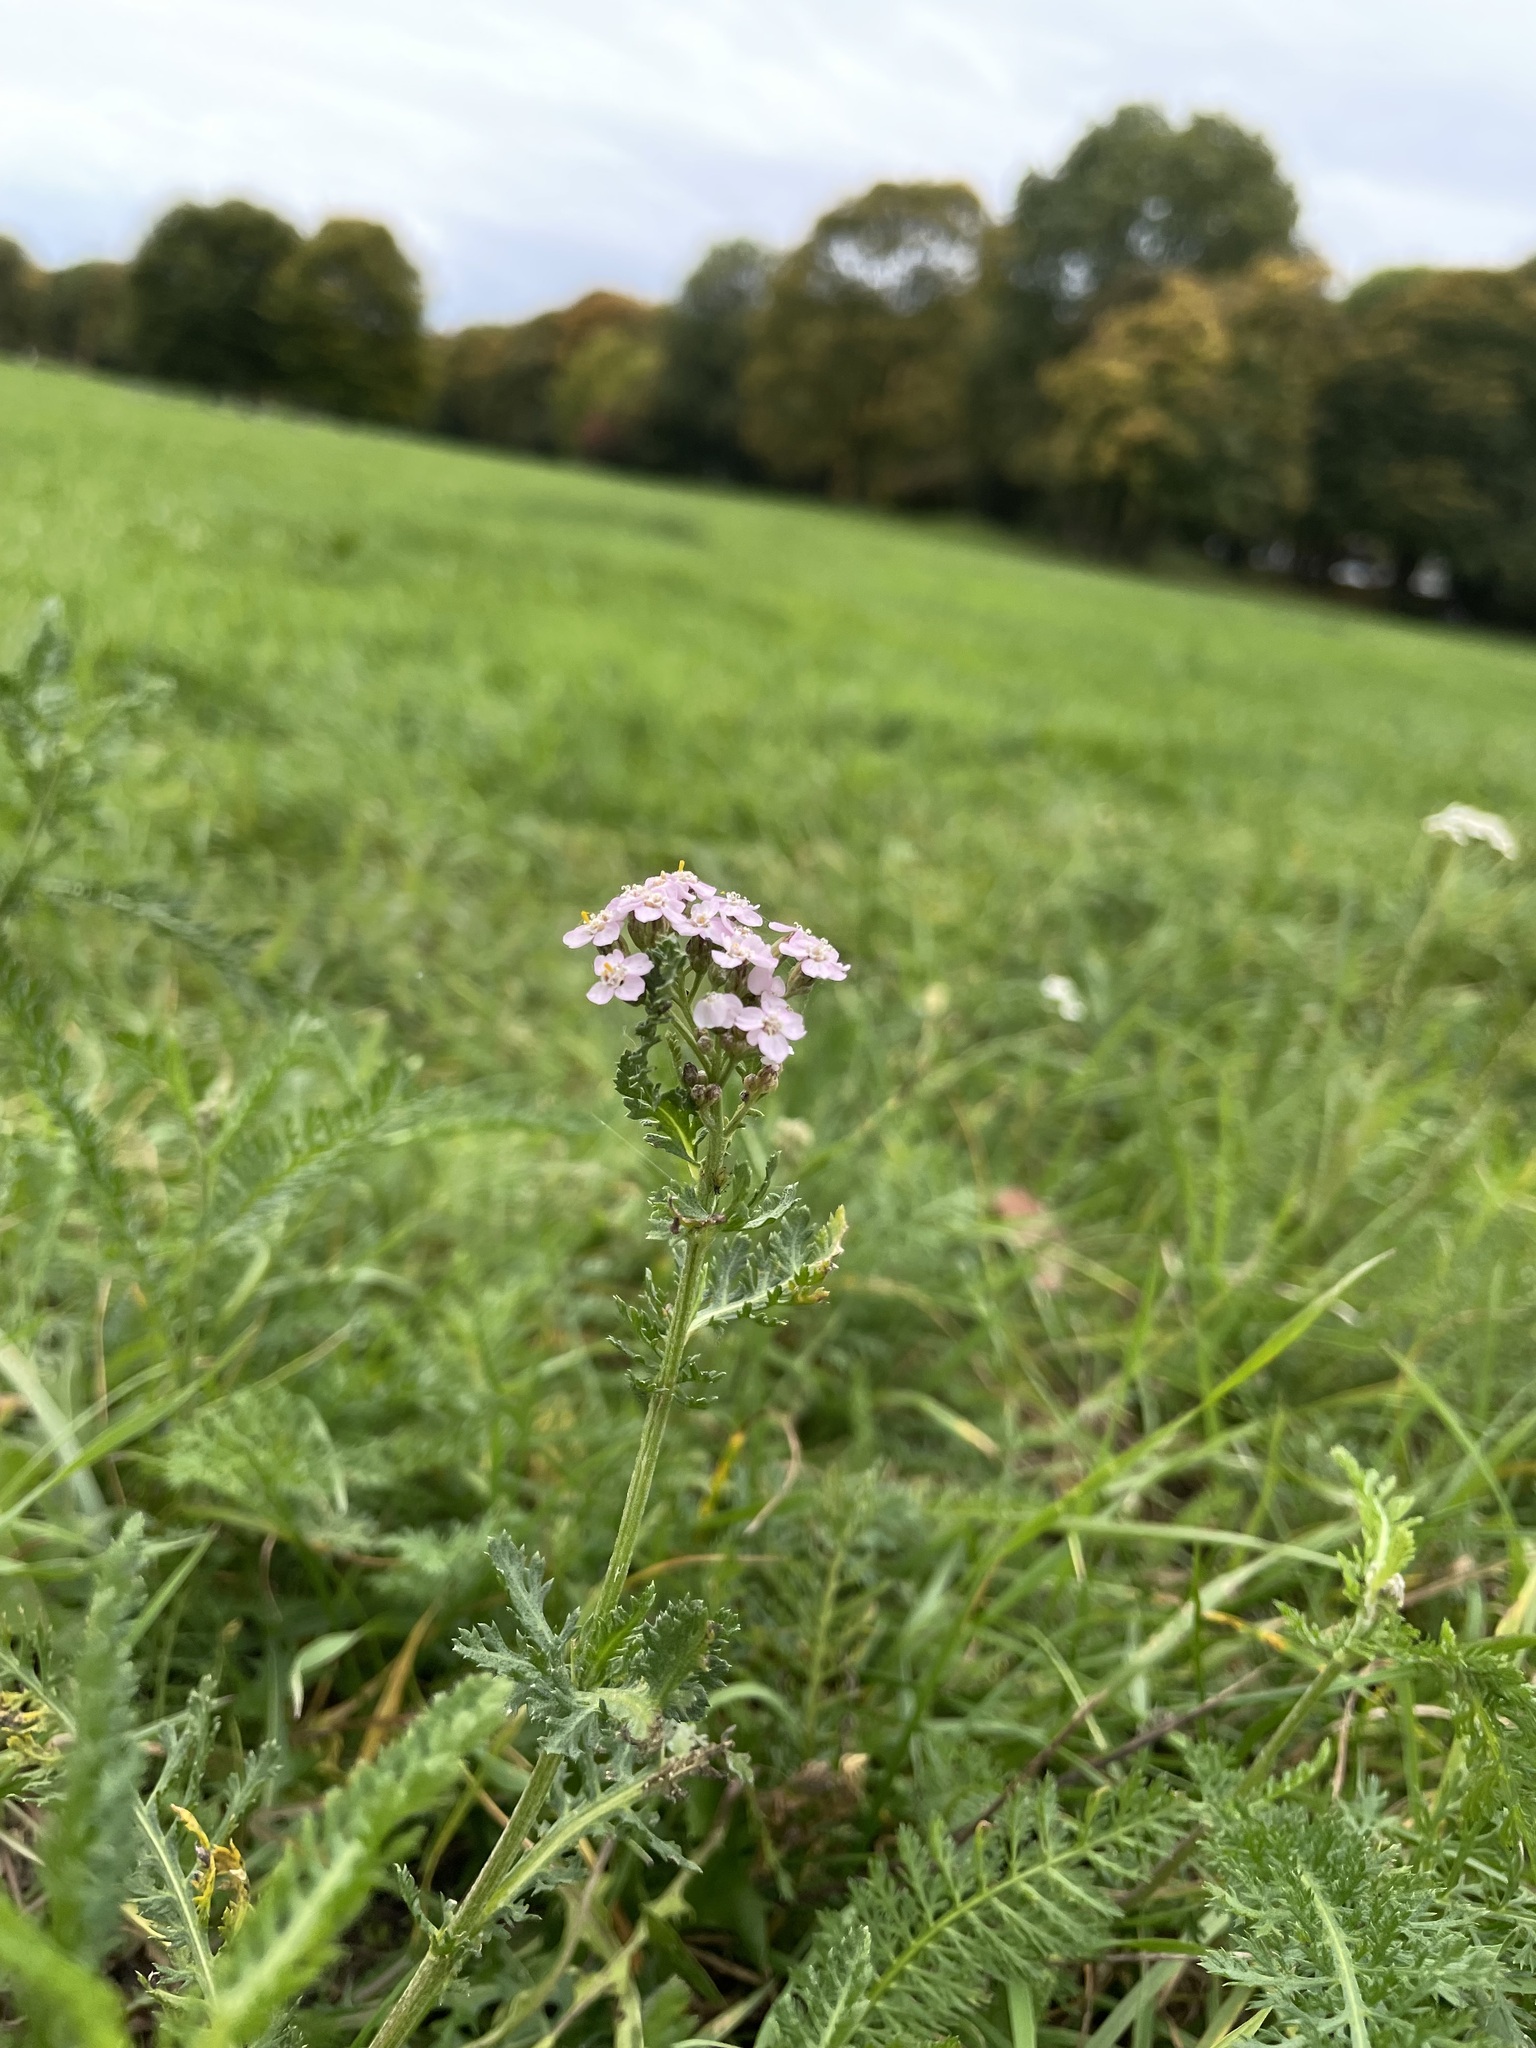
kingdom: Plantae
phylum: Tracheophyta
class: Magnoliopsida
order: Asterales
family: Asteraceae
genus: Achillea
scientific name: Achillea
